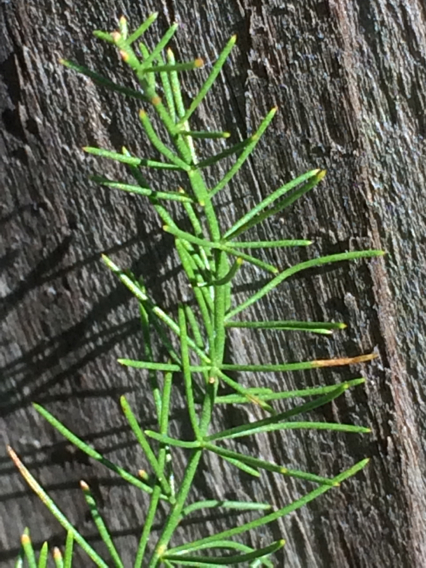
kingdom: Plantae
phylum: Tracheophyta
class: Liliopsida
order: Asparagales
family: Asparagaceae
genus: Asparagus
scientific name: Asparagus officinalis
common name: Garden asparagus
